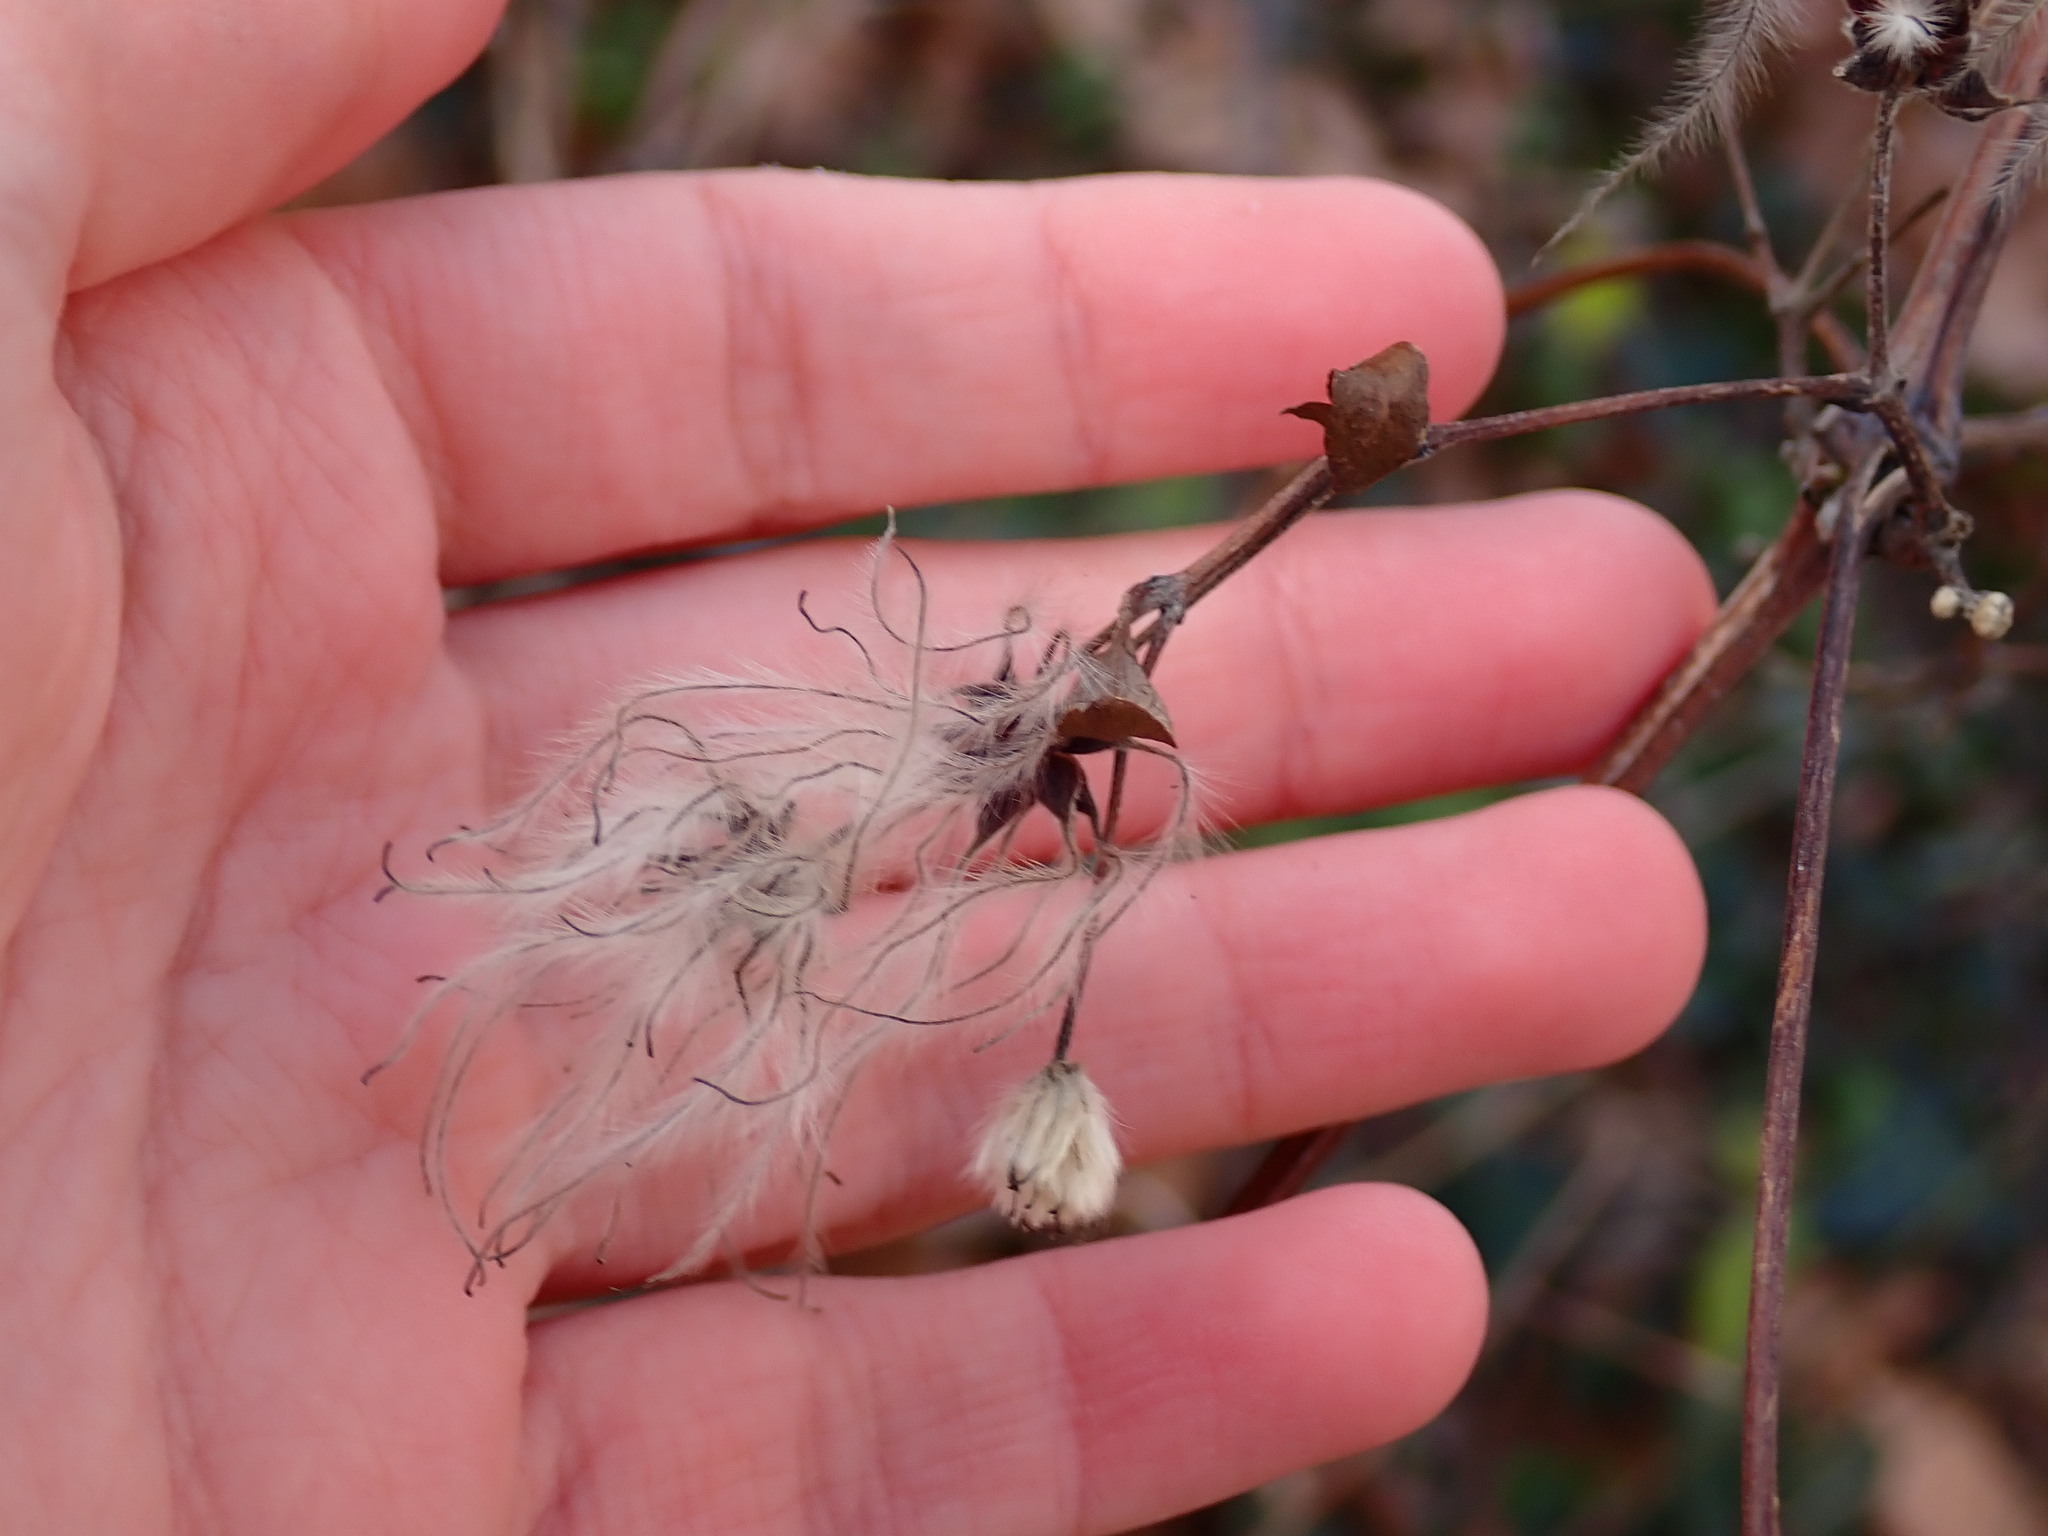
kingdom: Plantae
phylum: Tracheophyta
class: Magnoliopsida
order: Ranunculales
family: Ranunculaceae
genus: Clematis
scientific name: Clematis vitalba
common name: Evergreen clematis
